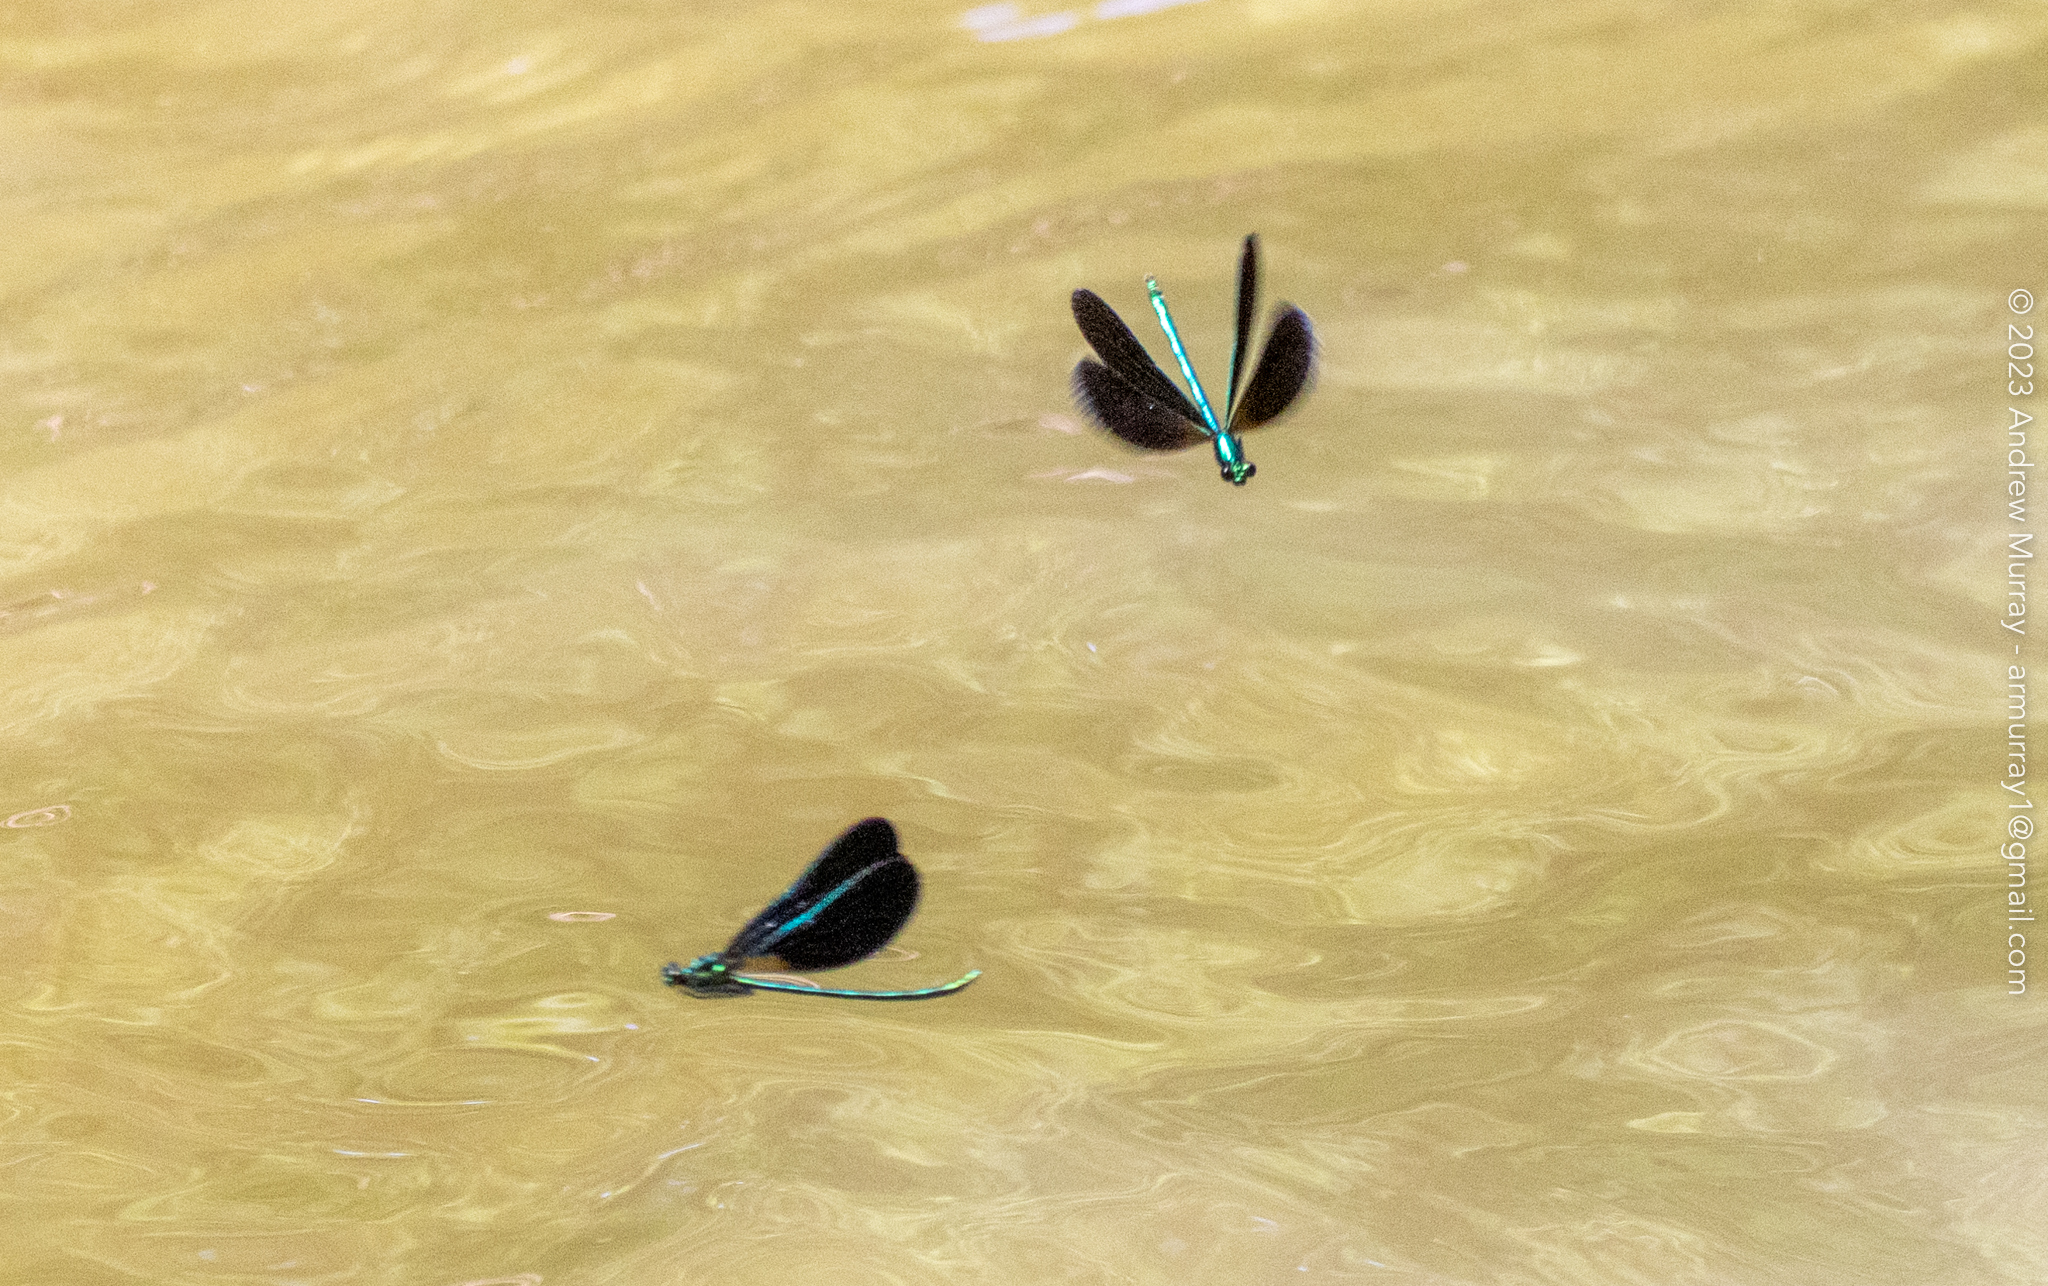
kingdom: Animalia
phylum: Arthropoda
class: Insecta
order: Odonata
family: Calopterygidae
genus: Calopteryx
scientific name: Calopteryx maculata
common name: Ebony jewelwing
